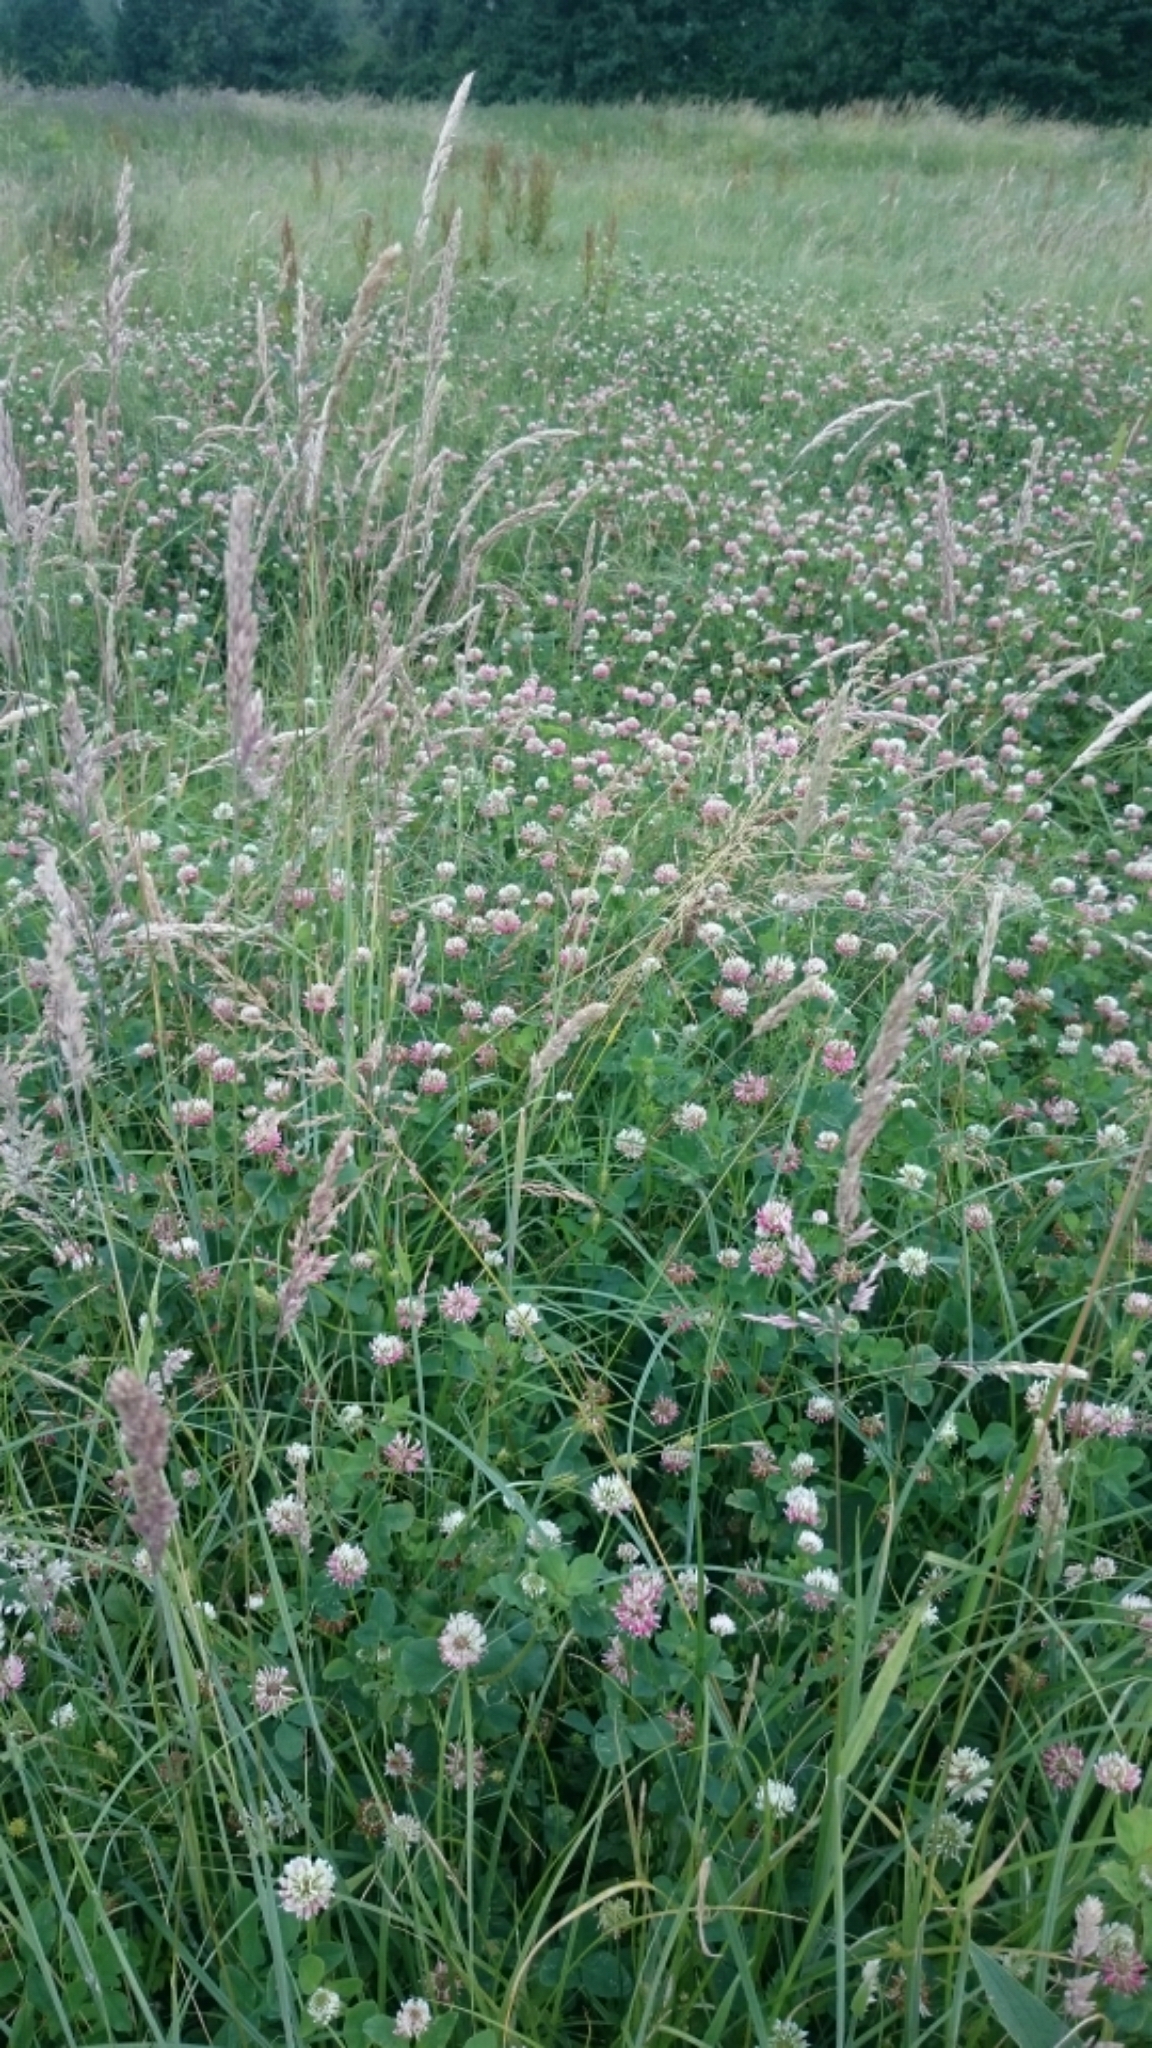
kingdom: Plantae
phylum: Tracheophyta
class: Magnoliopsida
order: Fabales
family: Fabaceae
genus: Trifolium
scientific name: Trifolium hybridum
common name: Alsike clover
